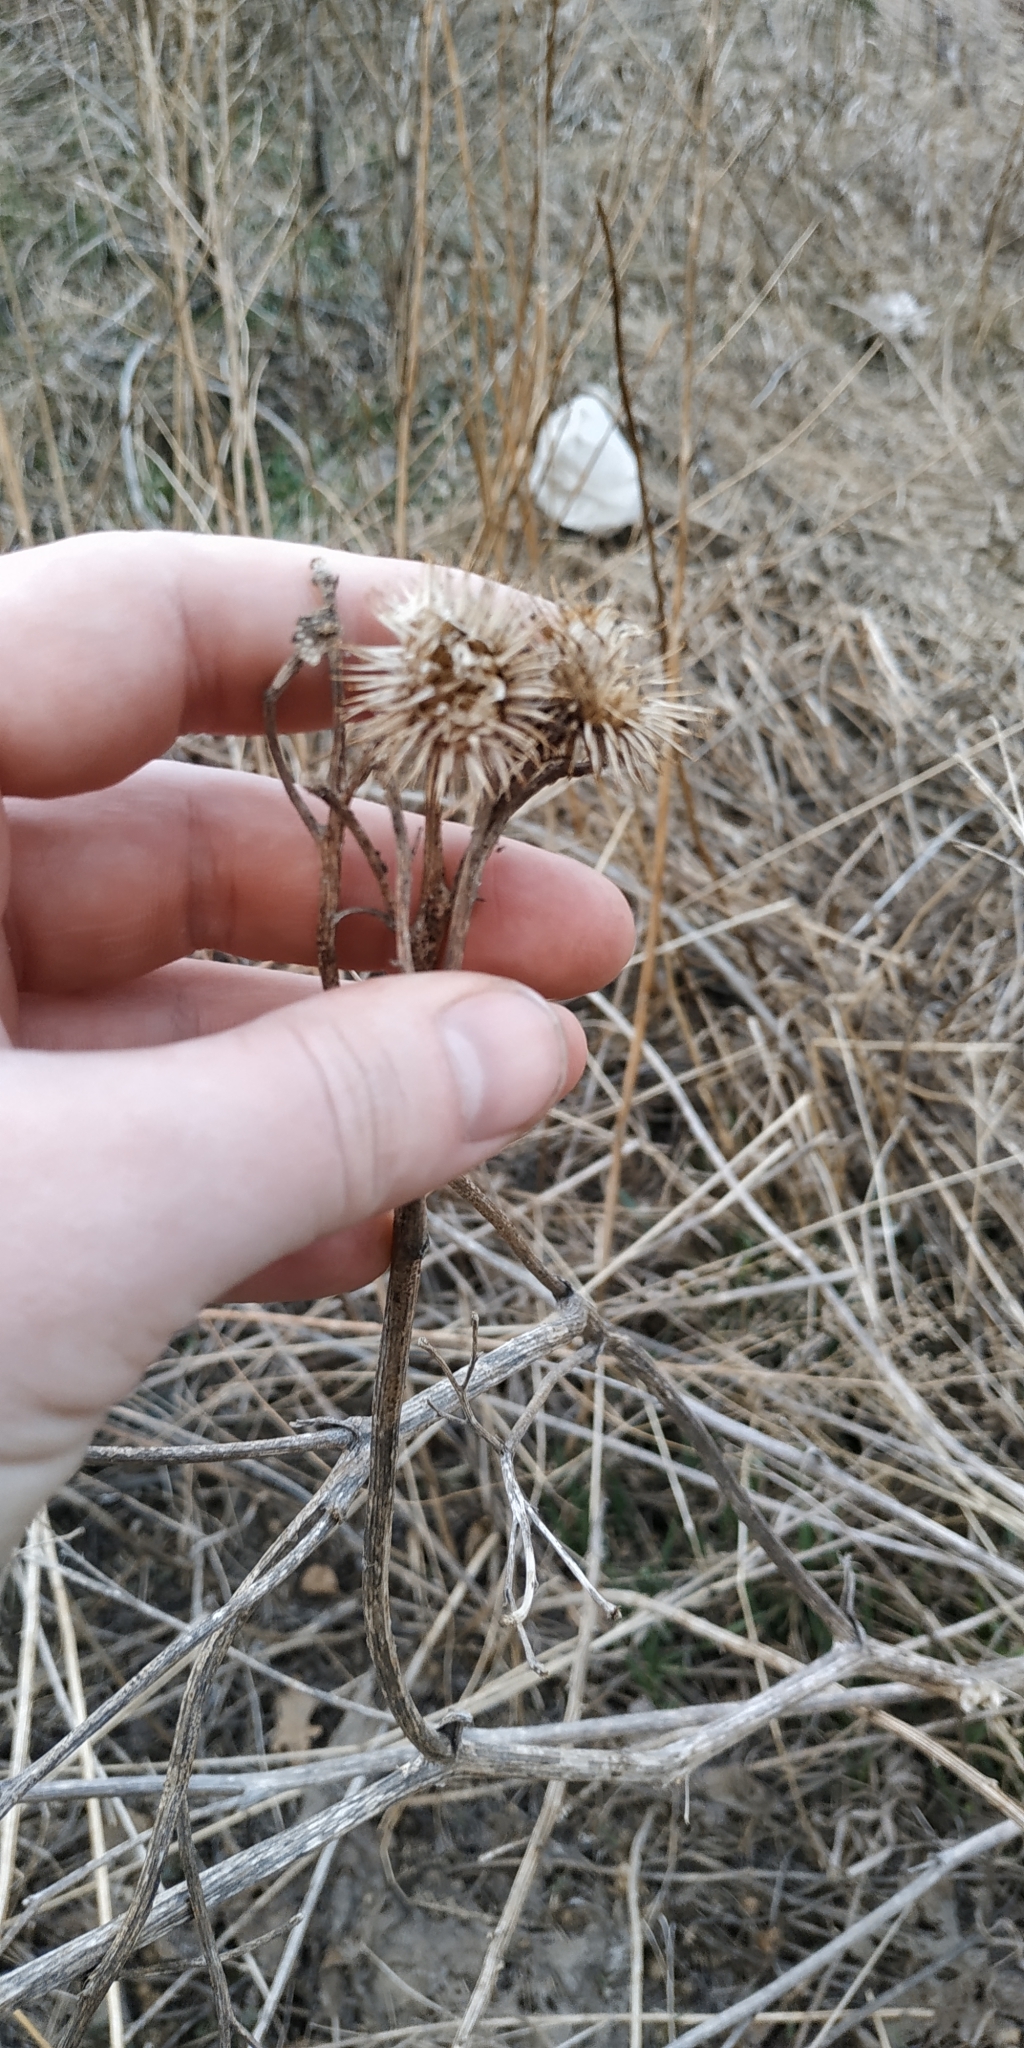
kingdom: Plantae
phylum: Tracheophyta
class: Magnoliopsida
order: Asterales
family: Asteraceae
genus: Arctium
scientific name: Arctium tomentosum
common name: Woolly burdock
